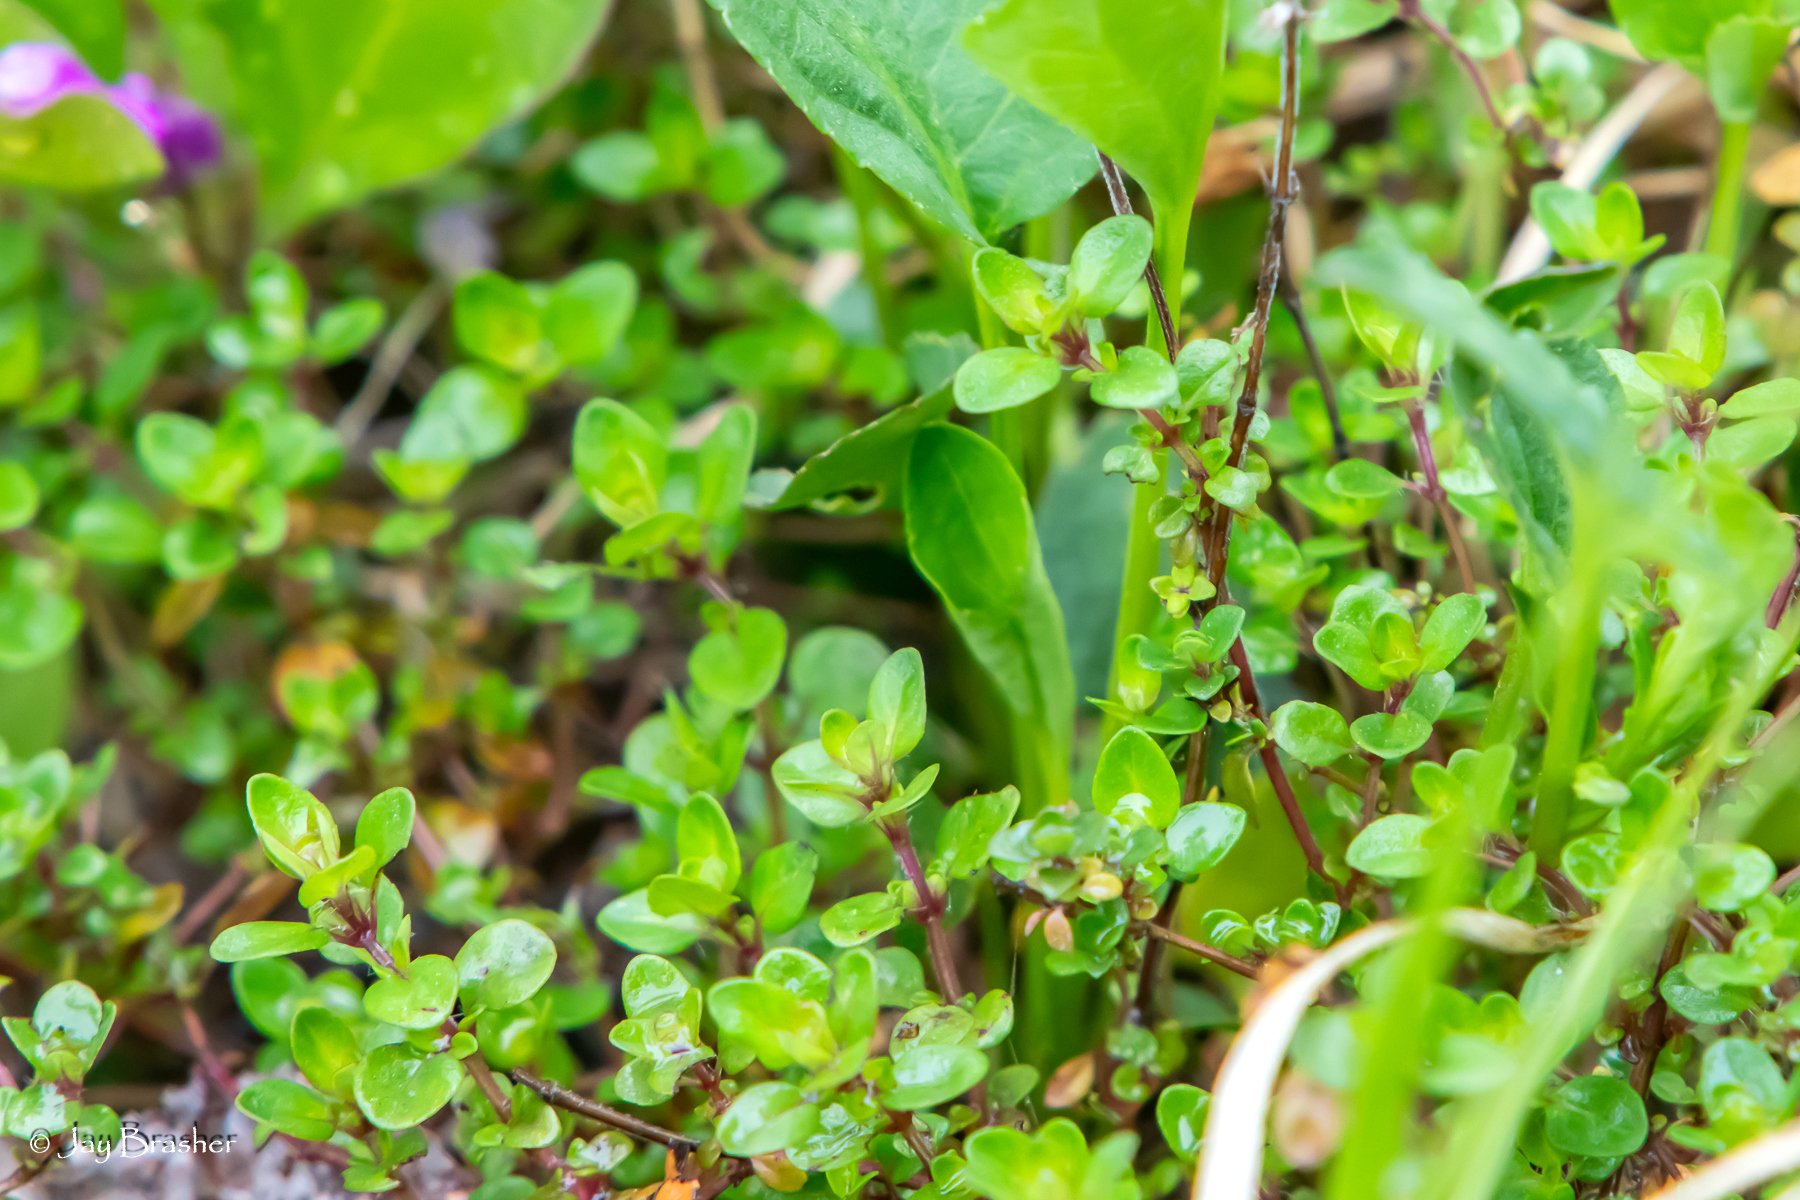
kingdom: Plantae
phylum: Tracheophyta
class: Magnoliopsida
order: Lamiales
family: Lamiaceae
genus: Thymus
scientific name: Thymus pulegioides
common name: Large thyme
